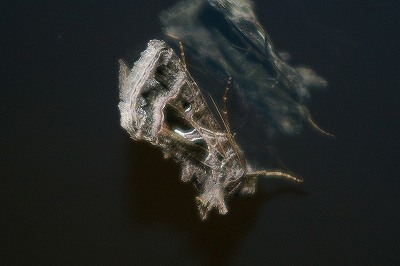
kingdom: Animalia
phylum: Arthropoda
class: Insecta
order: Lepidoptera
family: Noctuidae
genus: Thysanoplusia
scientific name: Thysanoplusia daubei
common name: Boathouse gem
